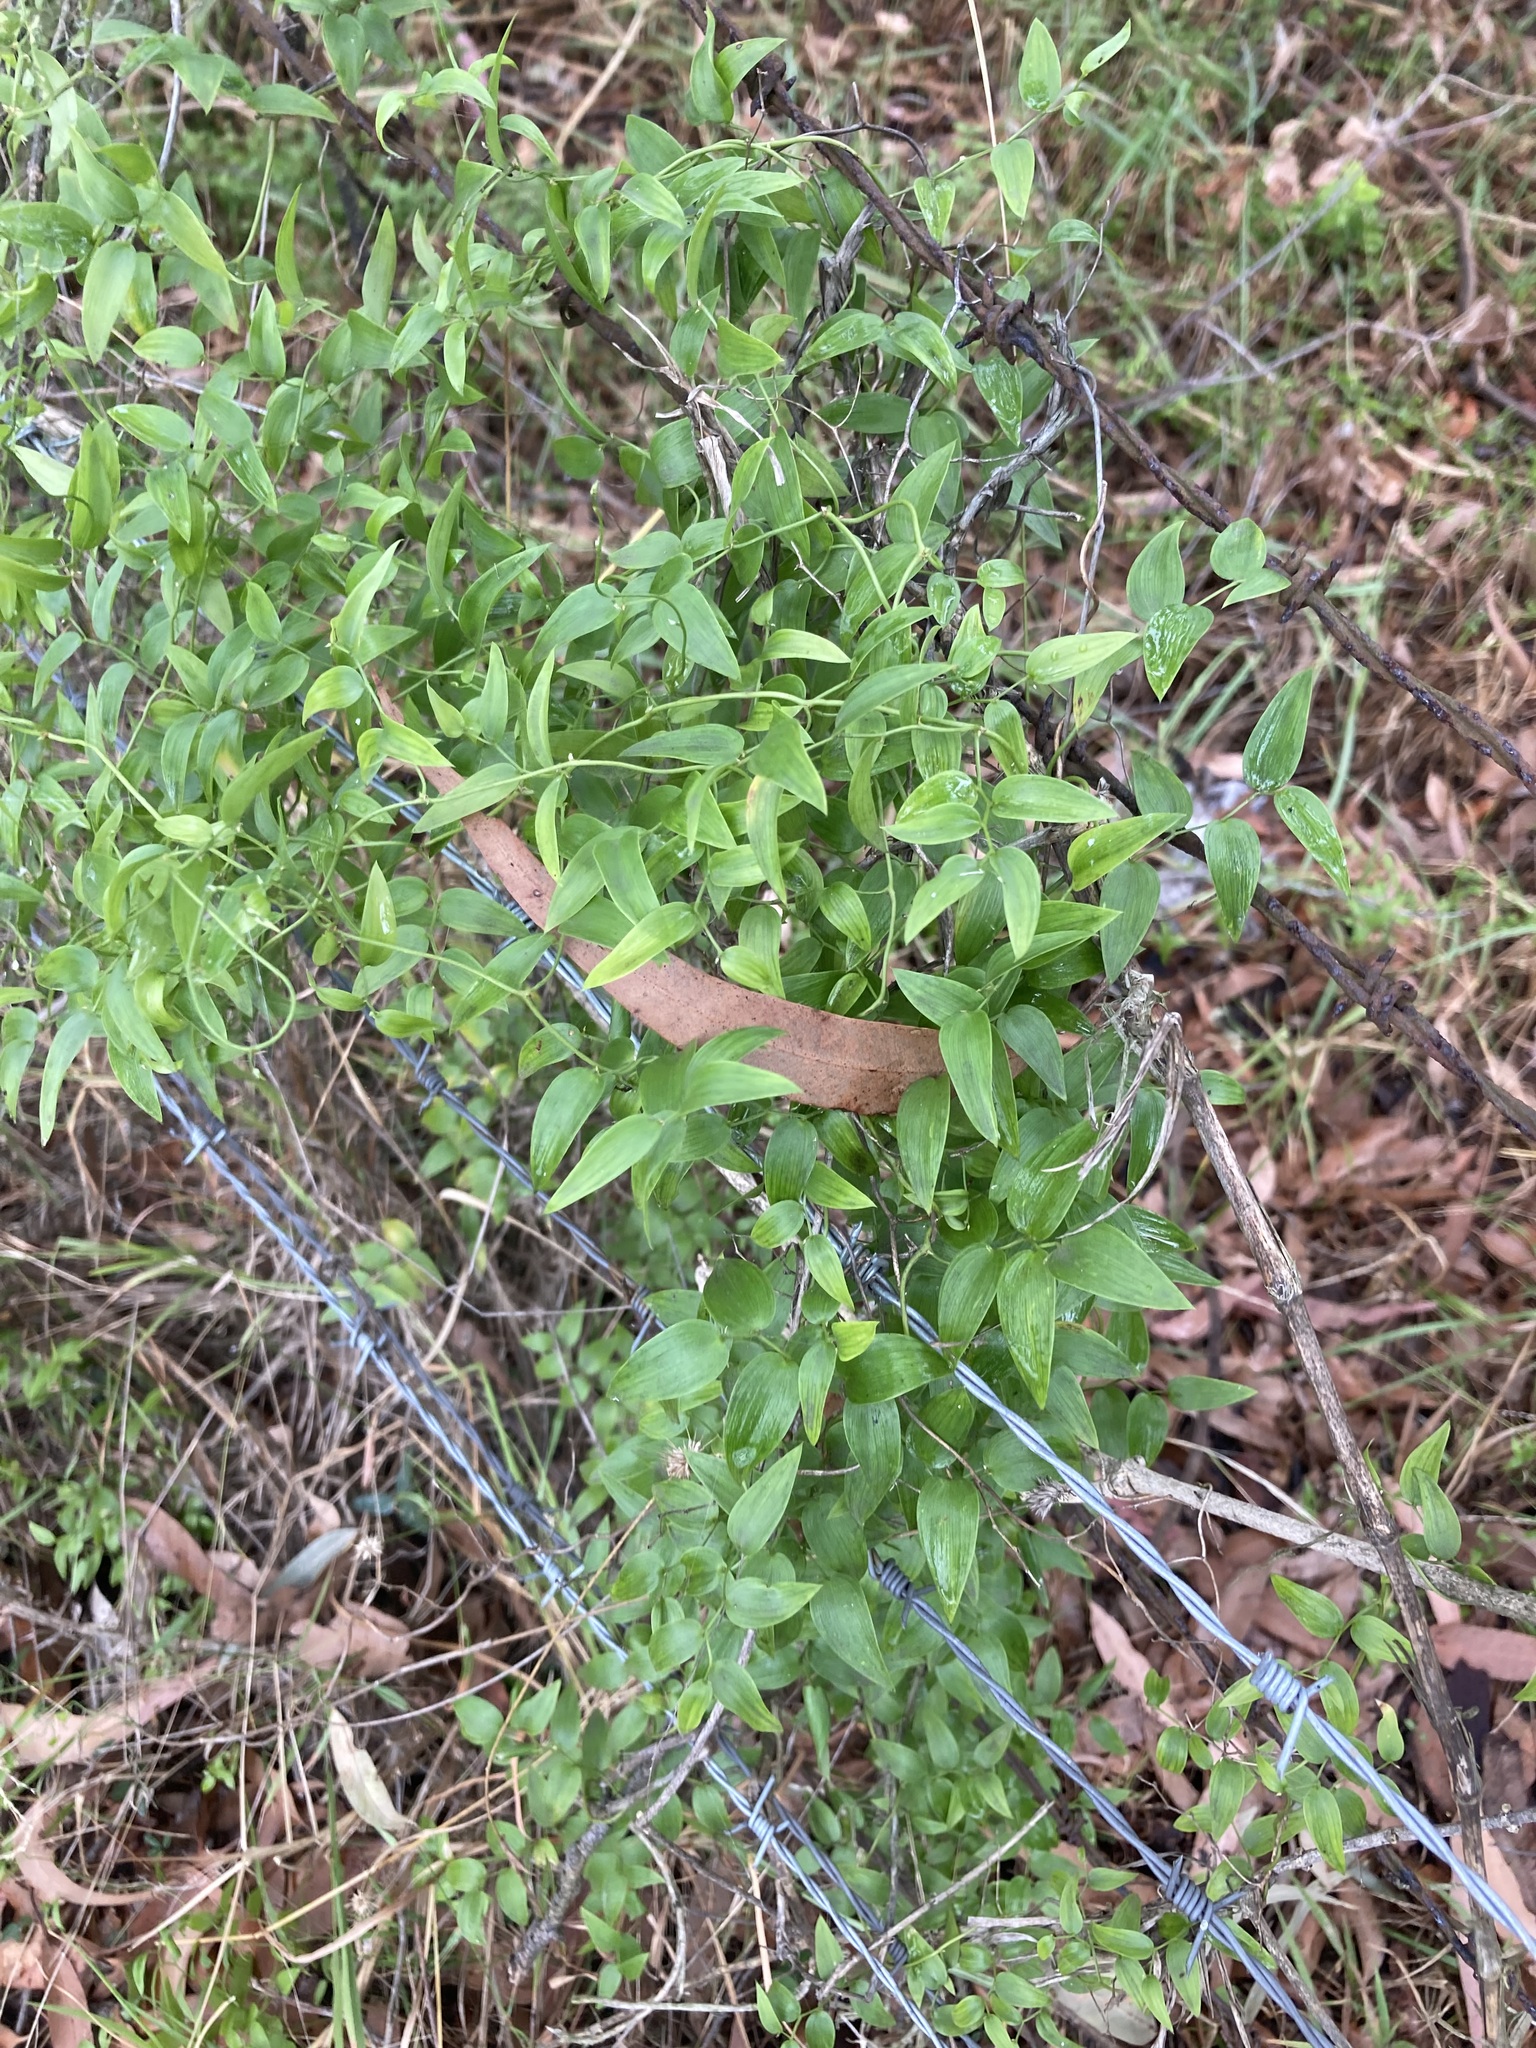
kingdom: Plantae
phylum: Tracheophyta
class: Liliopsida
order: Asparagales
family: Asparagaceae
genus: Asparagus
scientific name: Asparagus asparagoides
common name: African asparagus fern
